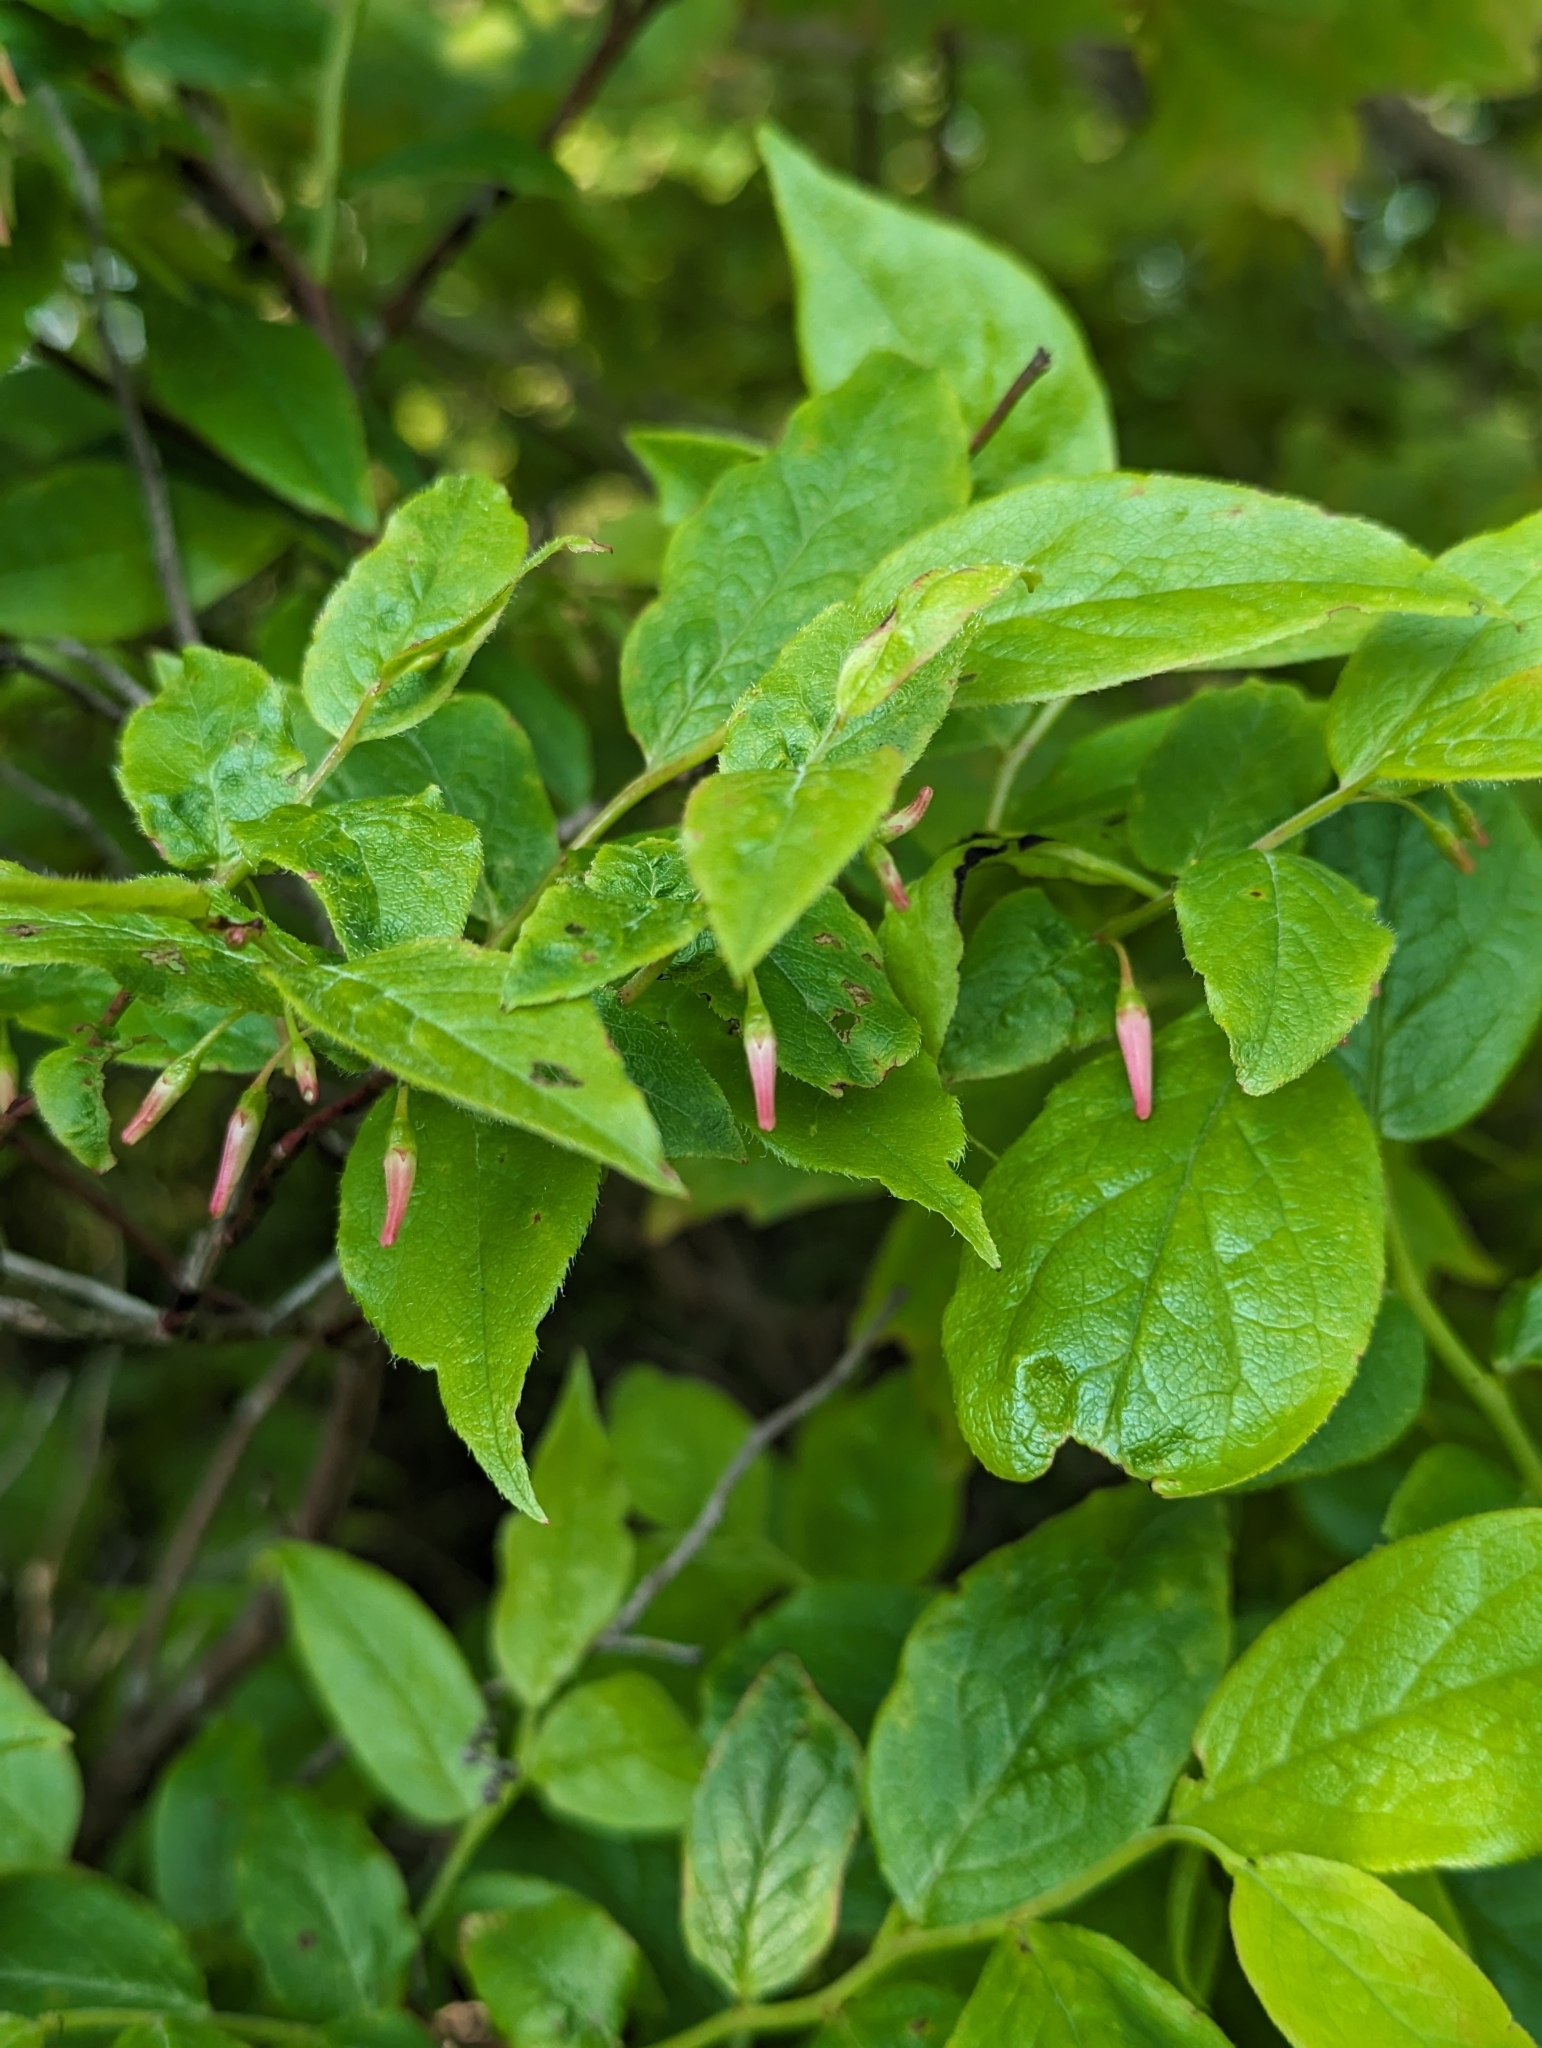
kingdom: Plantae
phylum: Tracheophyta
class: Magnoliopsida
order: Ericales
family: Ericaceae
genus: Vaccinium
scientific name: Vaccinium erythrocarpum
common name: Bearberry
